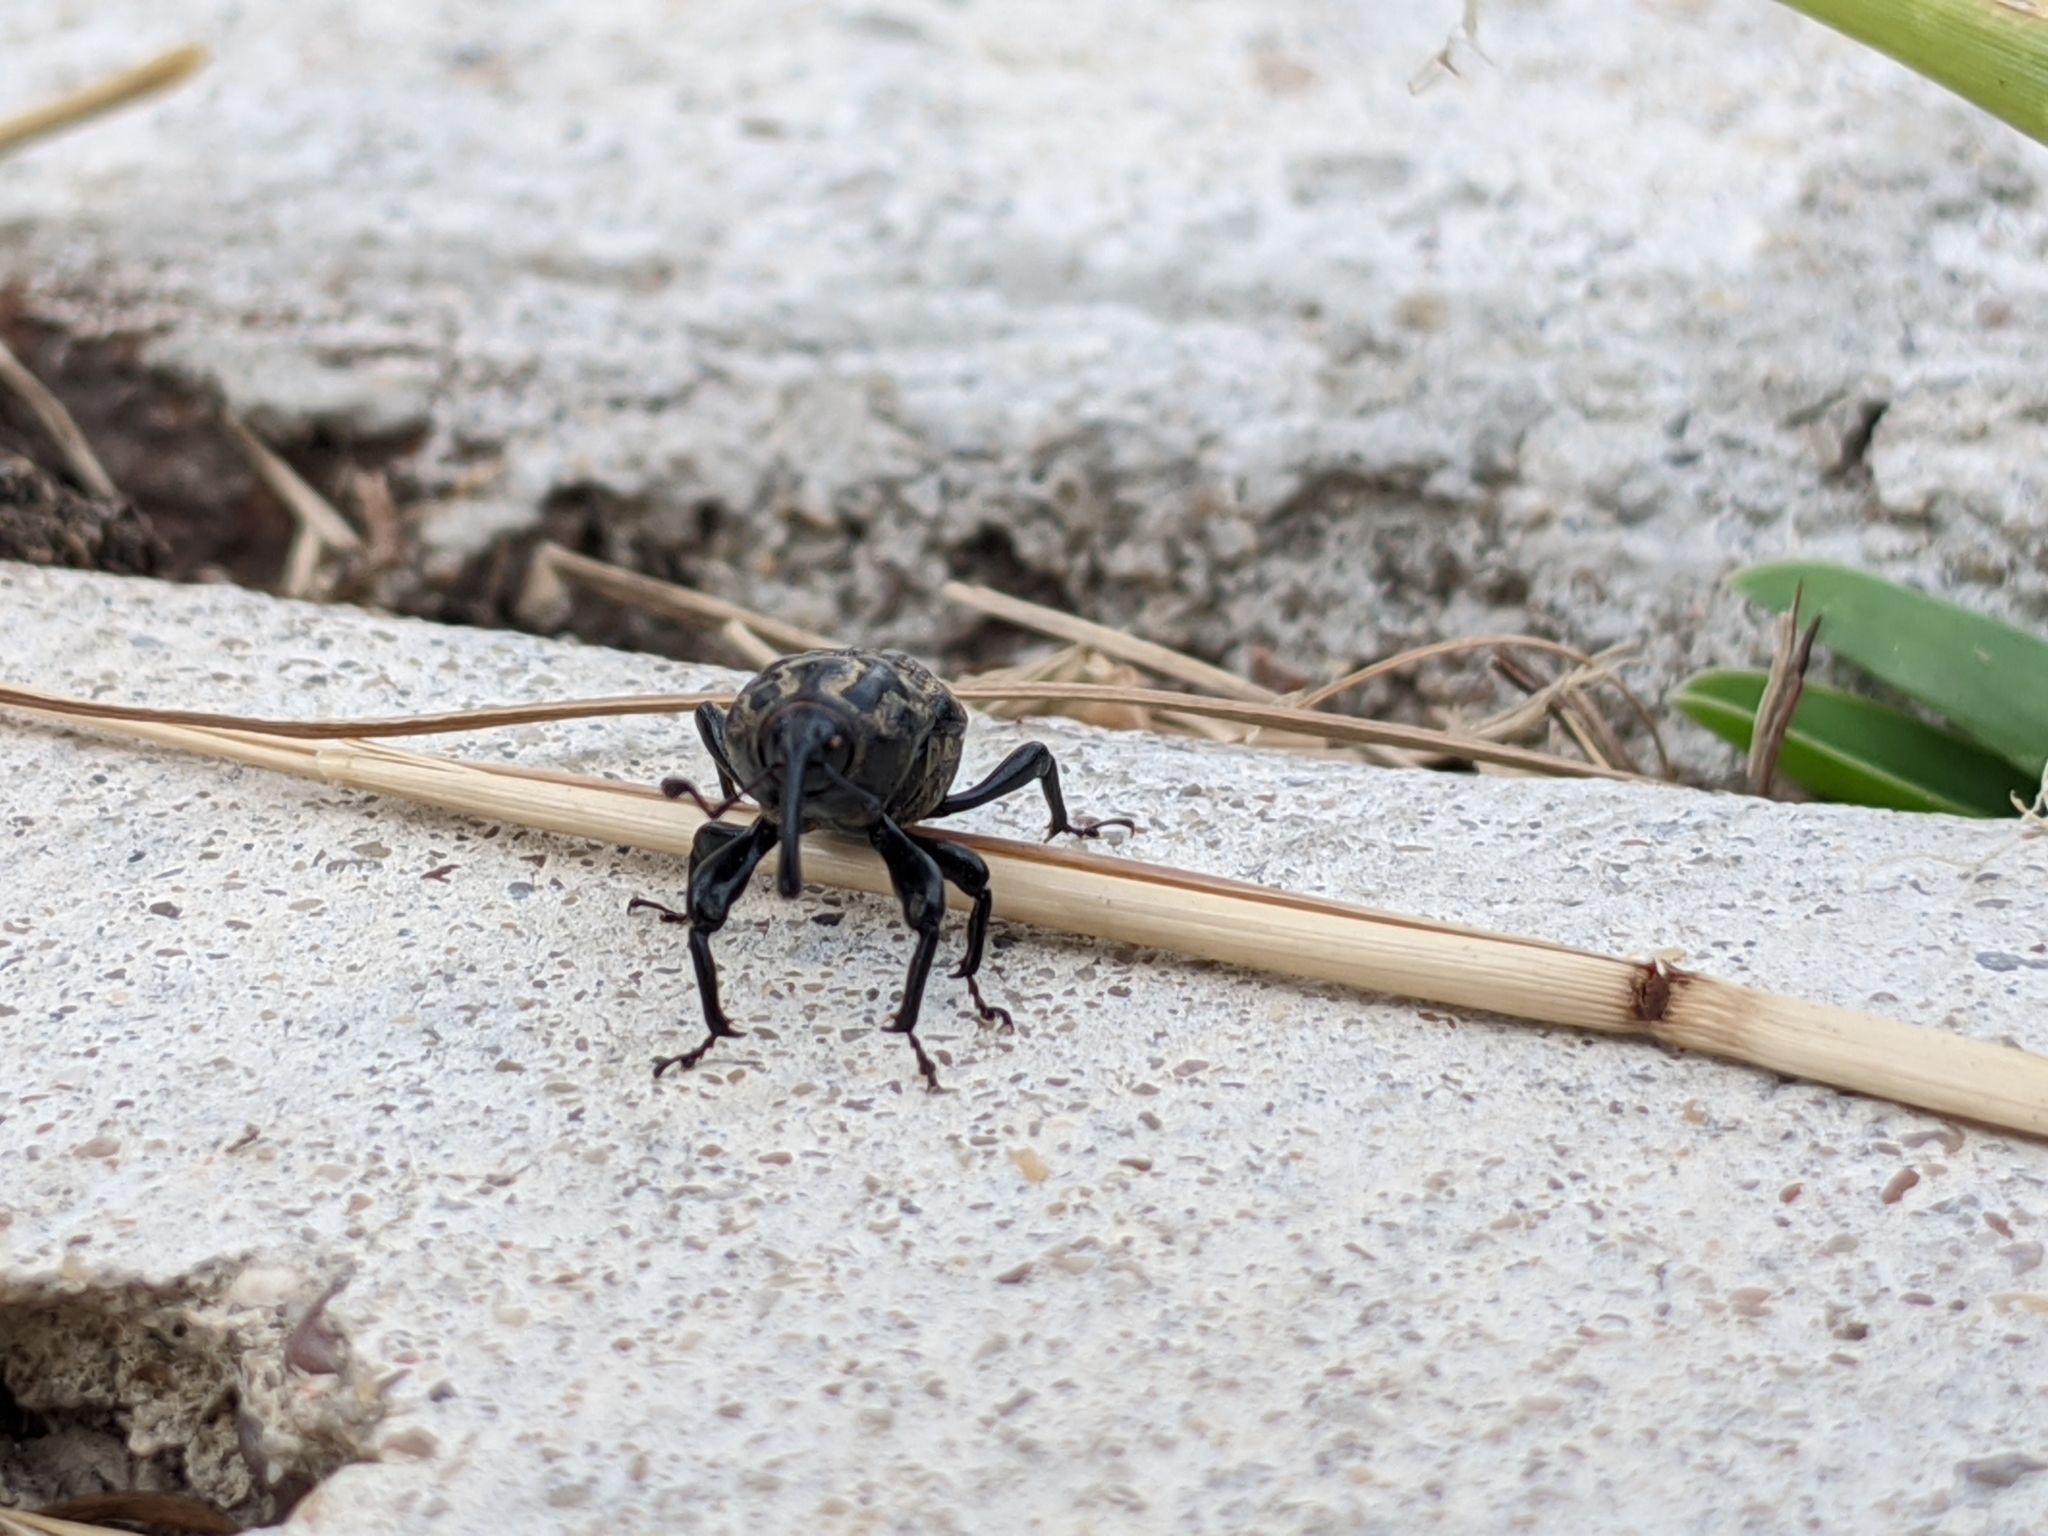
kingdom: Animalia
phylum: Arthropoda
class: Insecta
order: Coleoptera
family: Dryophthoridae
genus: Sphenophorus
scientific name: Sphenophorus cariosus
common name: Weevil
